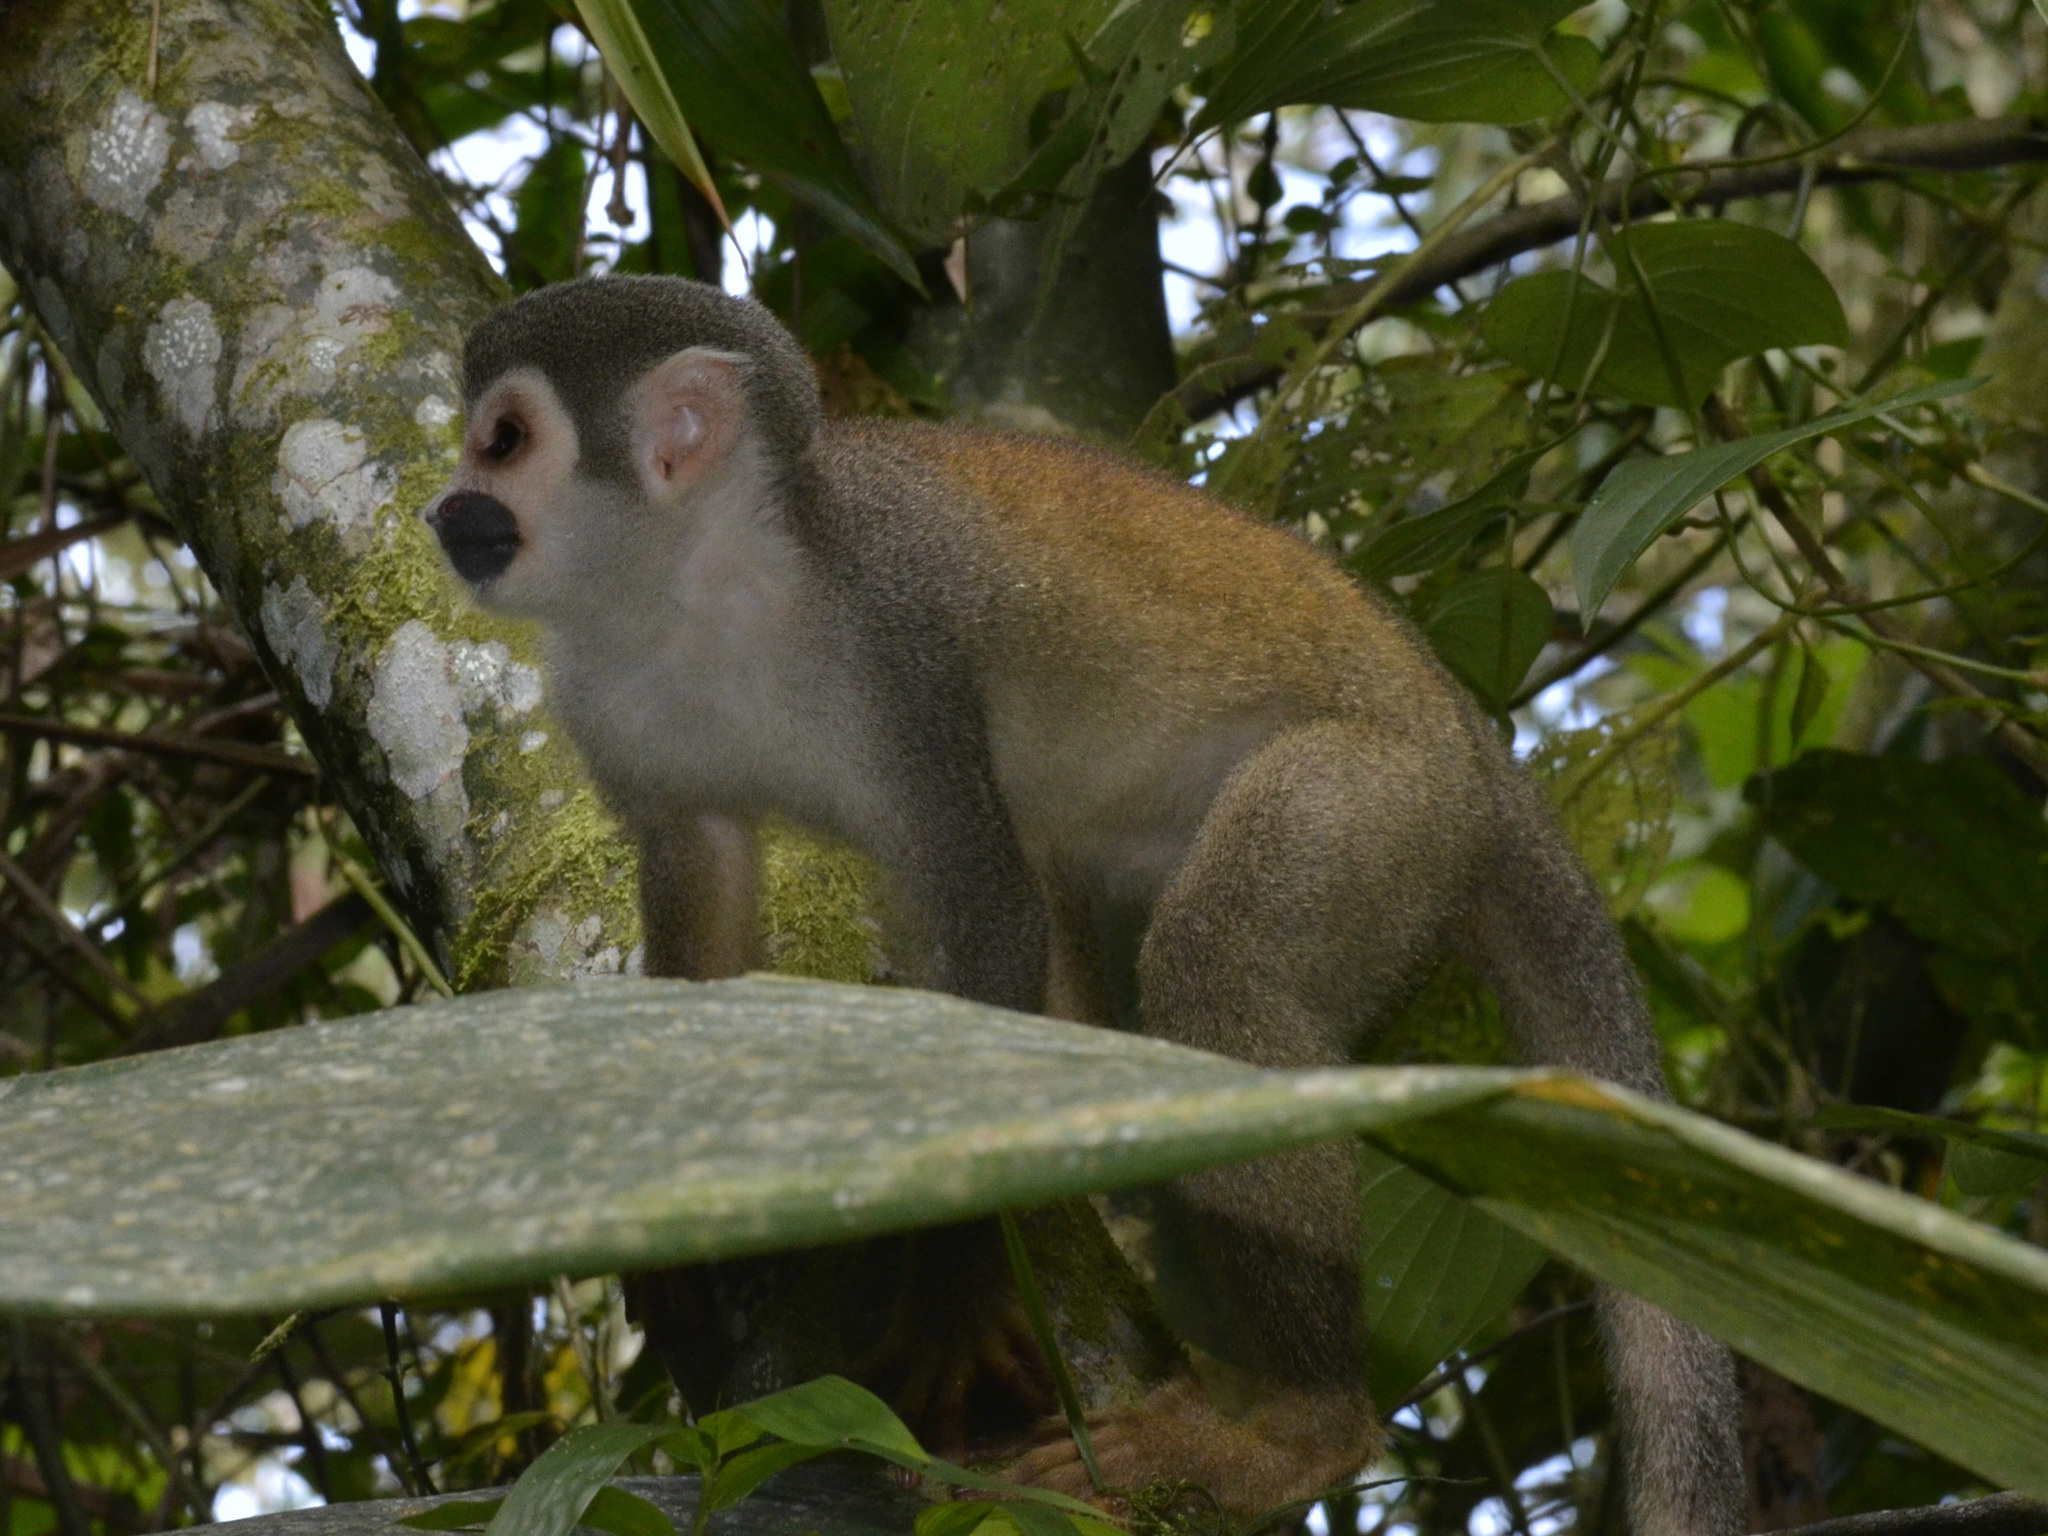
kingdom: Animalia
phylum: Chordata
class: Mammalia
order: Primates
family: Cebidae
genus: Saimiri
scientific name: Saimiri cassiquiarensis
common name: Humboldt’s squirrel monkey
